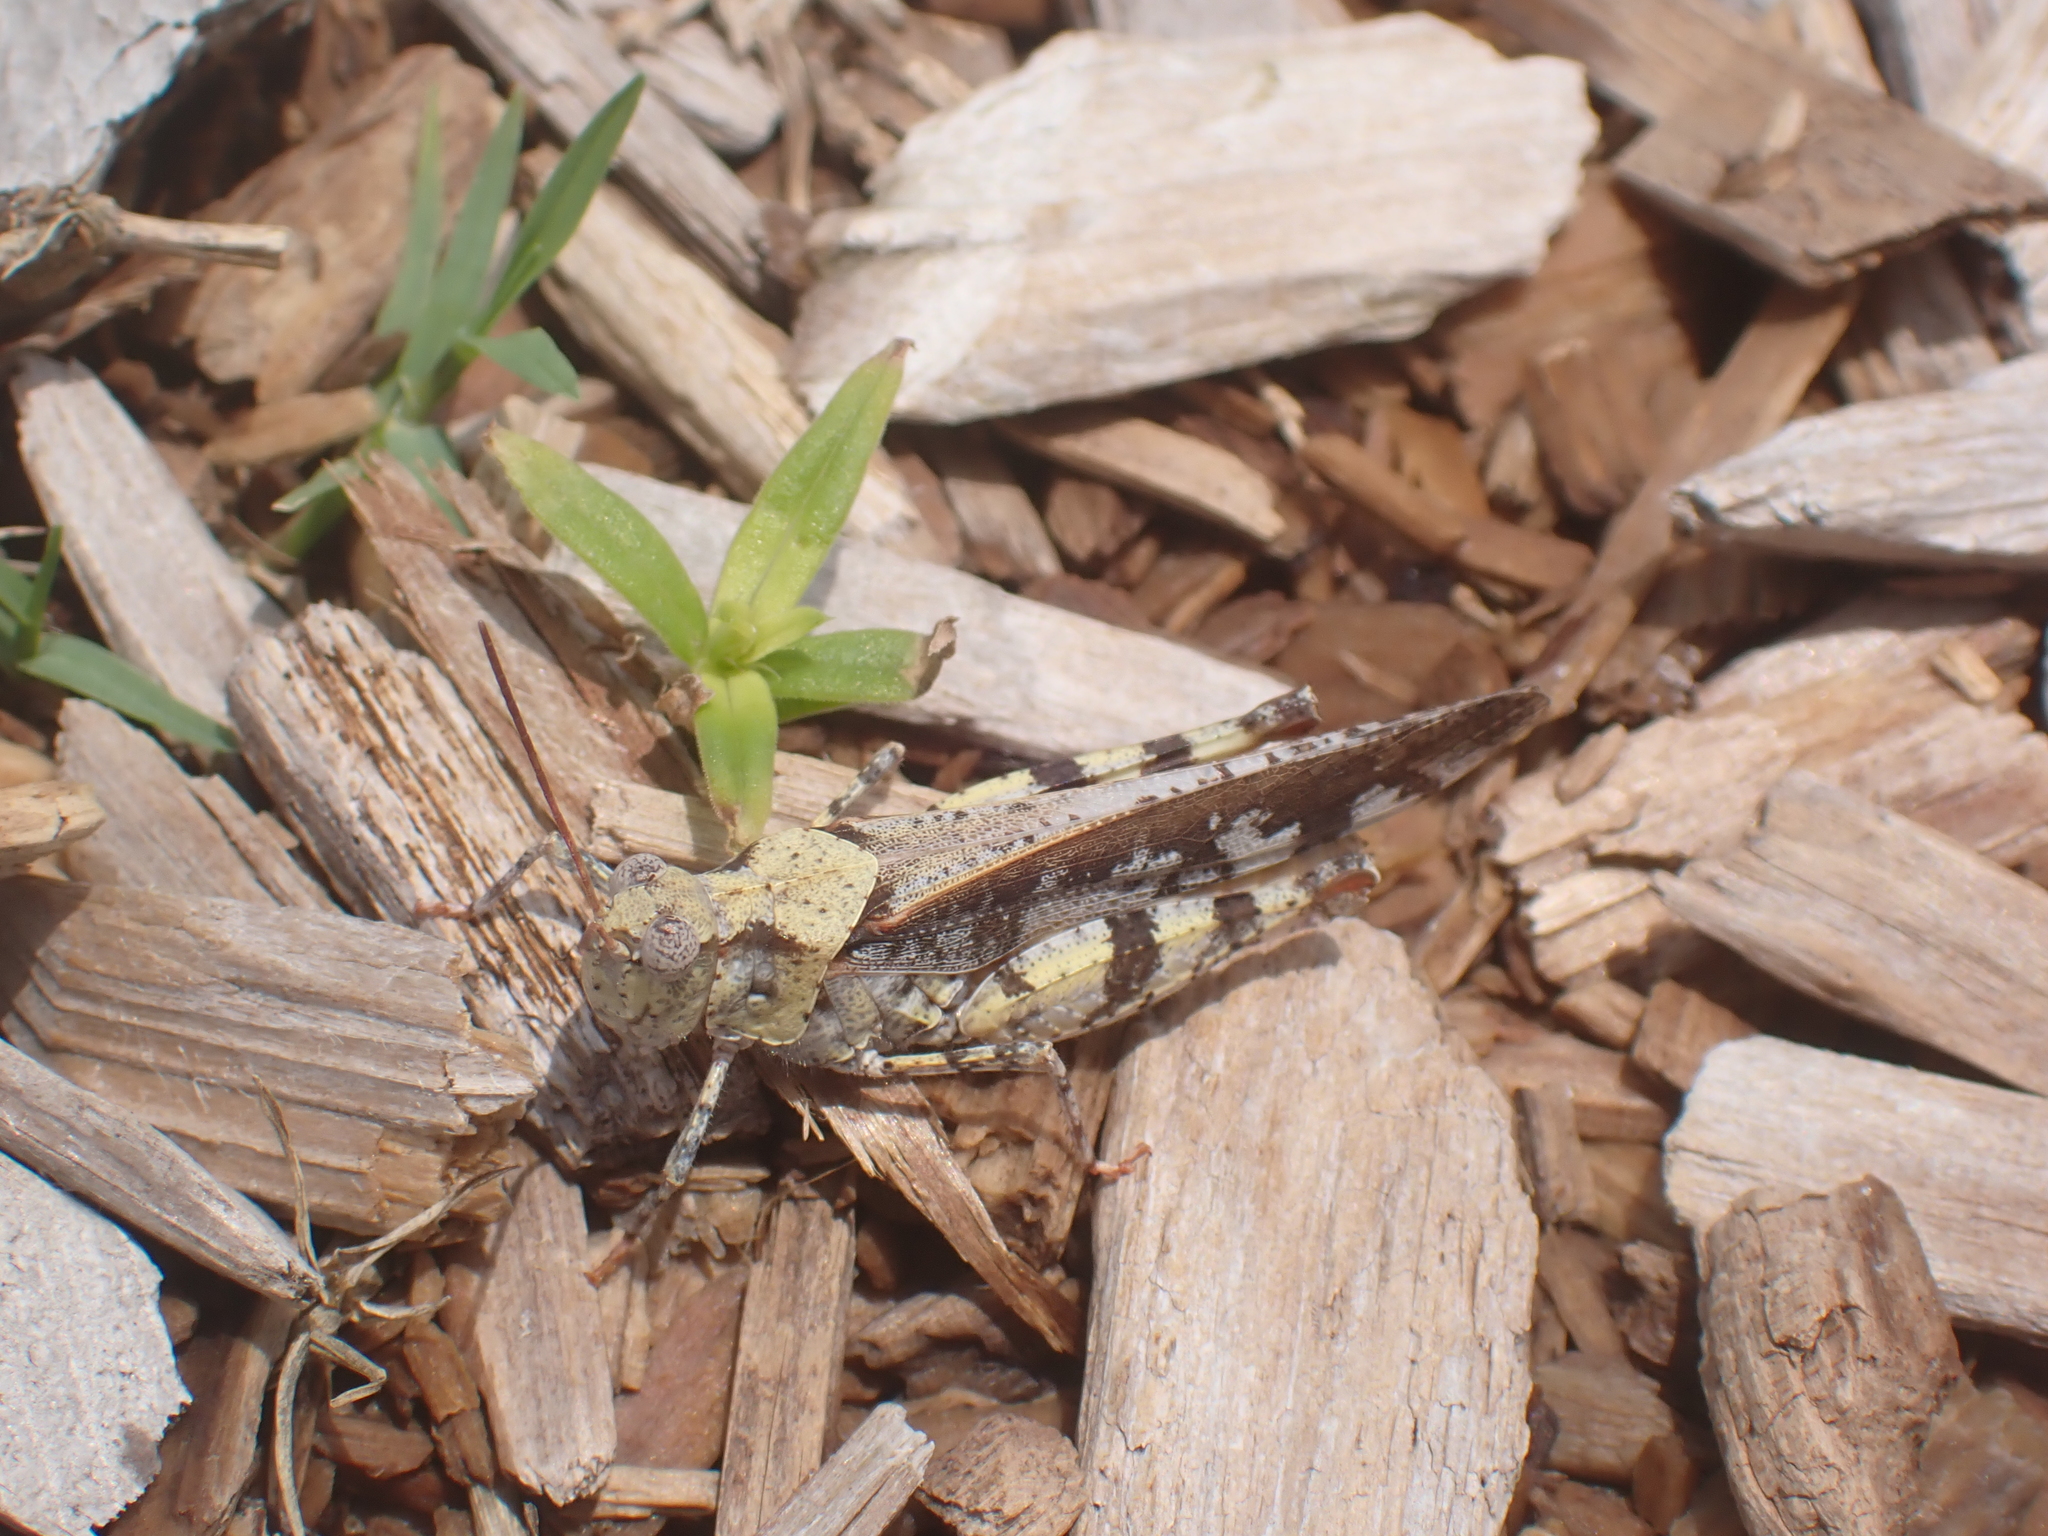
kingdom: Animalia
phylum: Arthropoda
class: Insecta
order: Orthoptera
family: Acrididae
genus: Spharagemon
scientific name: Spharagemon marmoratum
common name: Marbled grasshopper
